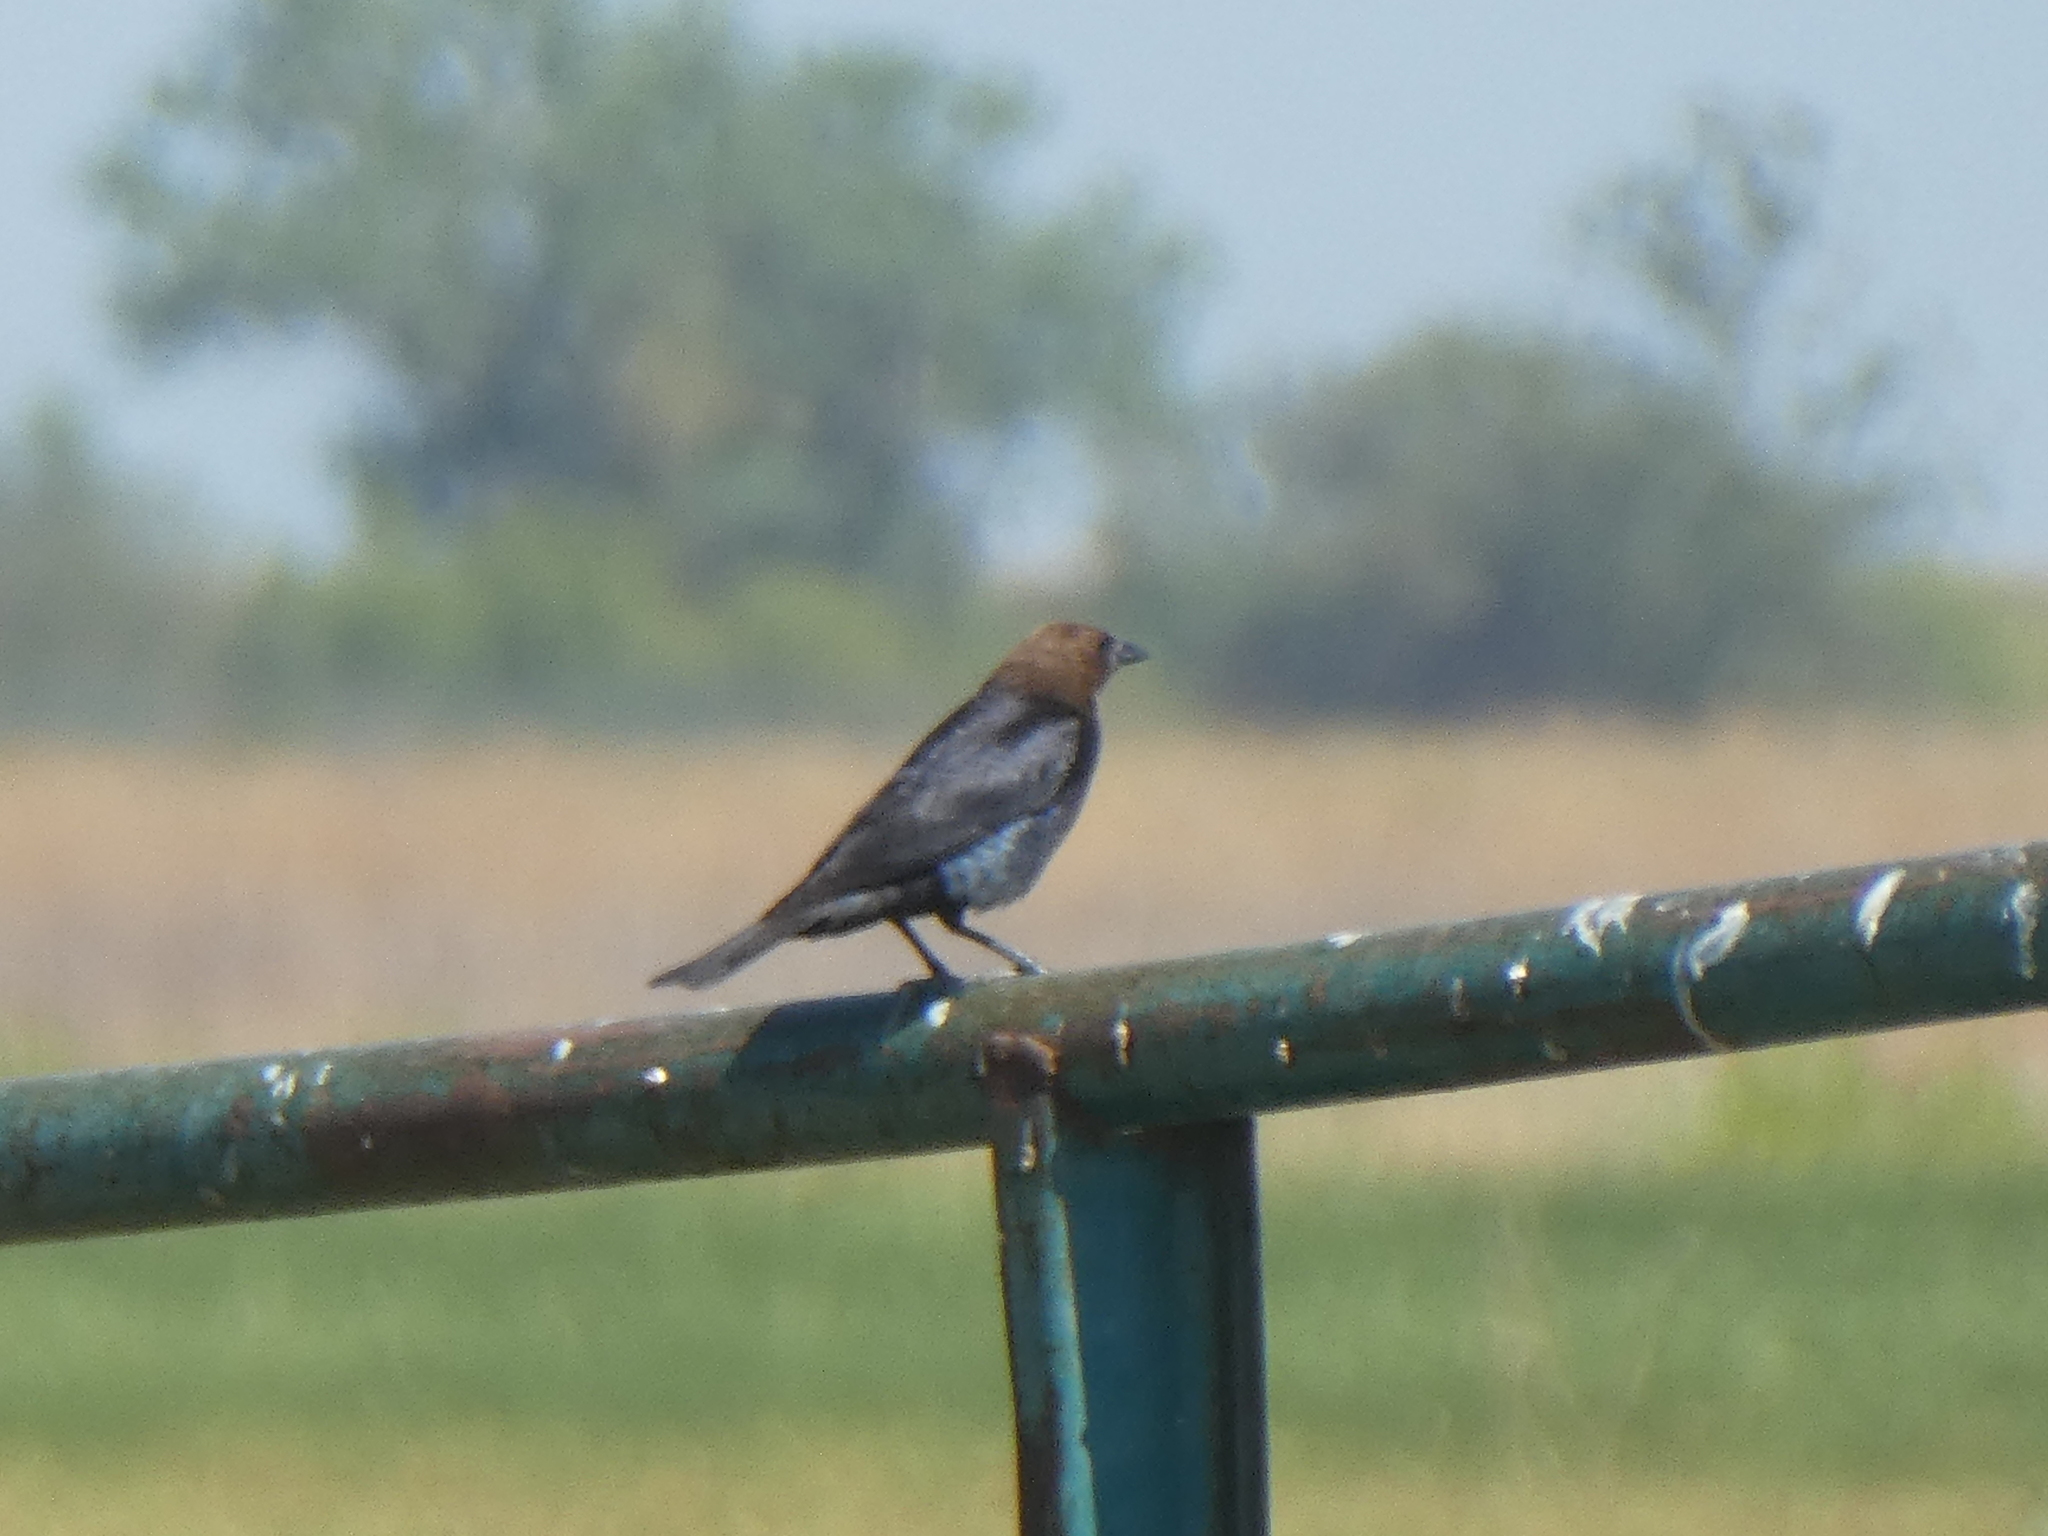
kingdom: Animalia
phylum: Chordata
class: Aves
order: Passeriformes
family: Icteridae
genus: Molothrus
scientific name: Molothrus ater
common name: Brown-headed cowbird
